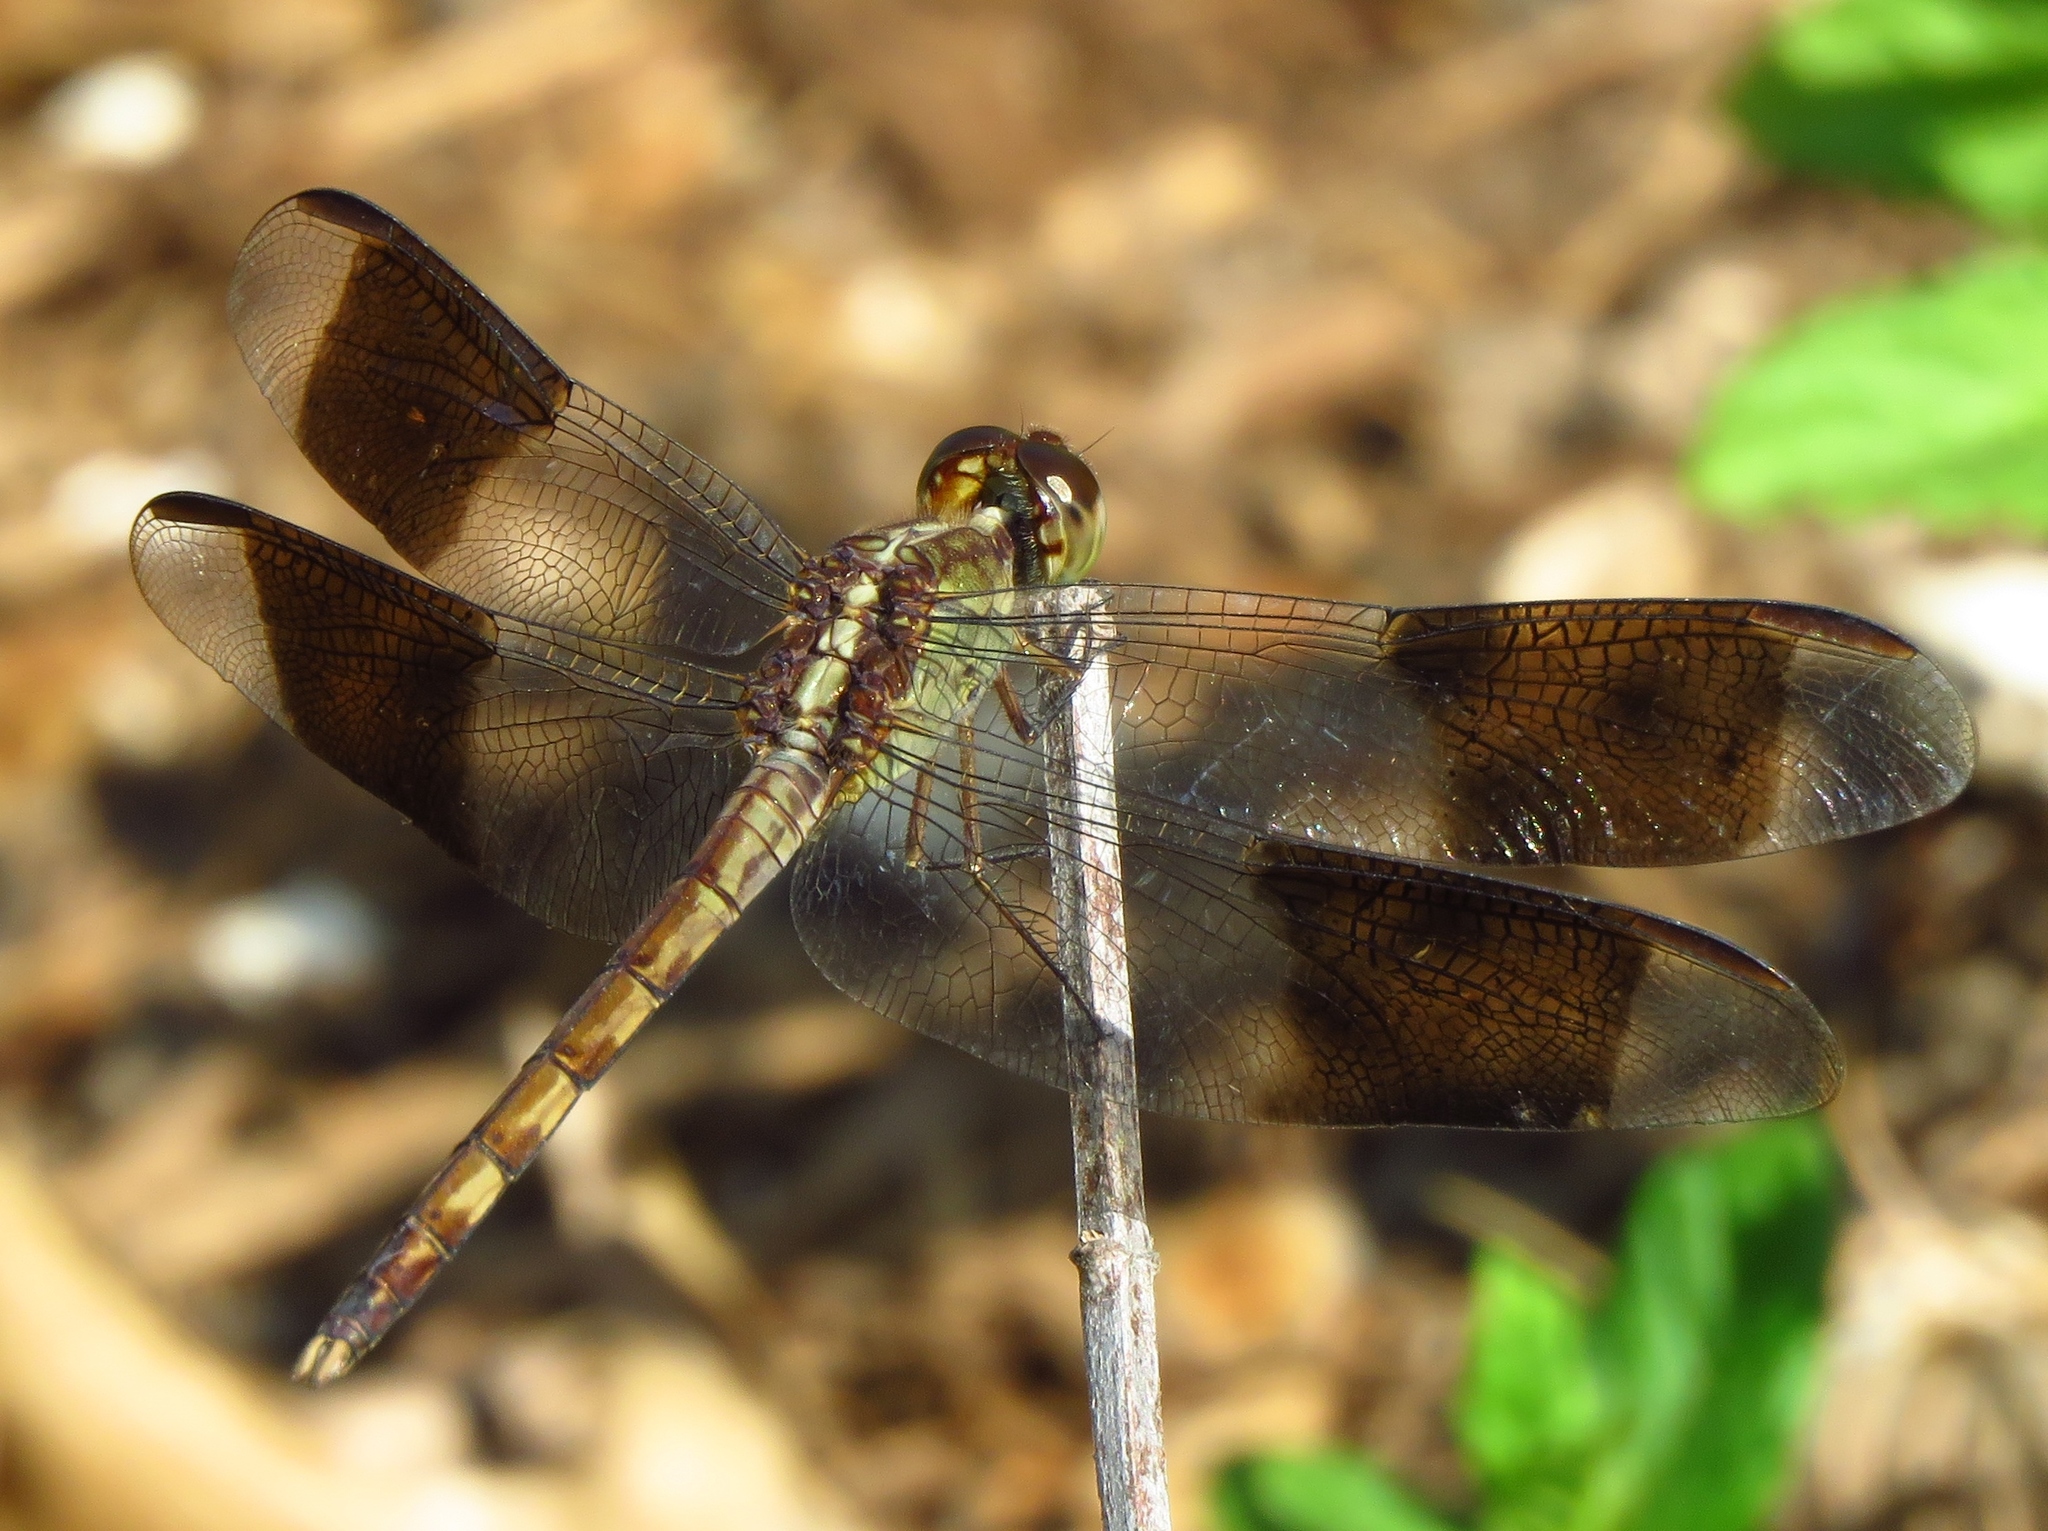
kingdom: Animalia
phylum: Arthropoda
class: Insecta
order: Odonata
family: Libellulidae
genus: Erythrodiplax
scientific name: Erythrodiplax umbrata
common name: Band-winged dragonlet
